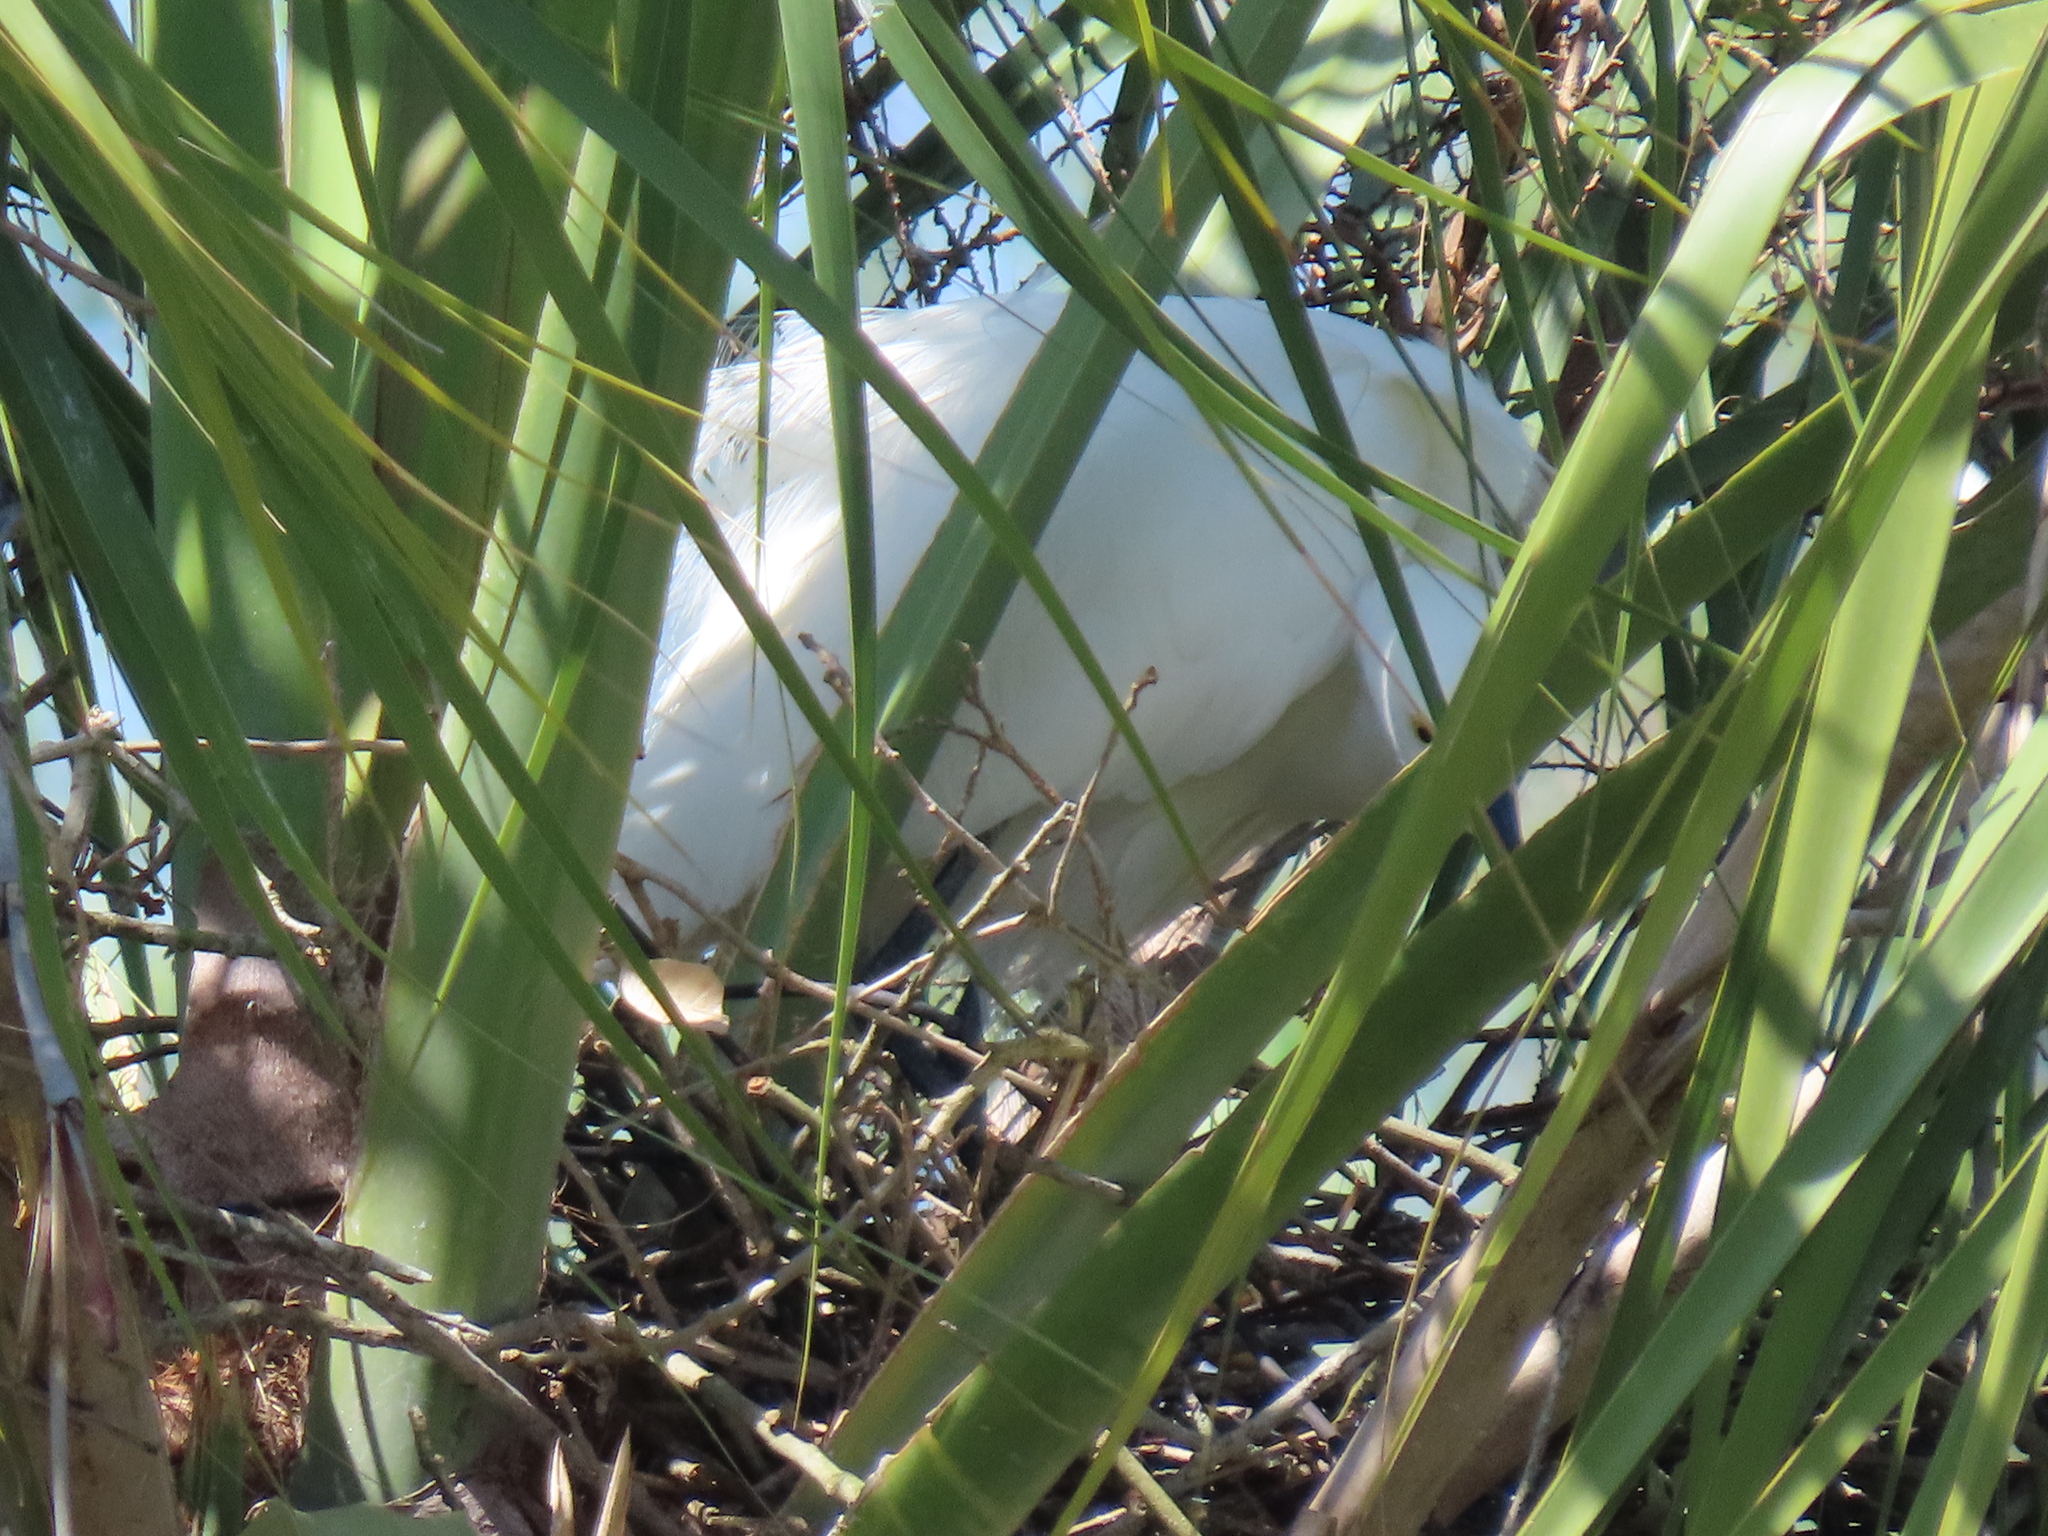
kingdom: Animalia
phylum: Chordata
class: Aves
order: Pelecaniformes
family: Ardeidae
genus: Egretta
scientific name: Egretta thula
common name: Snowy egret
